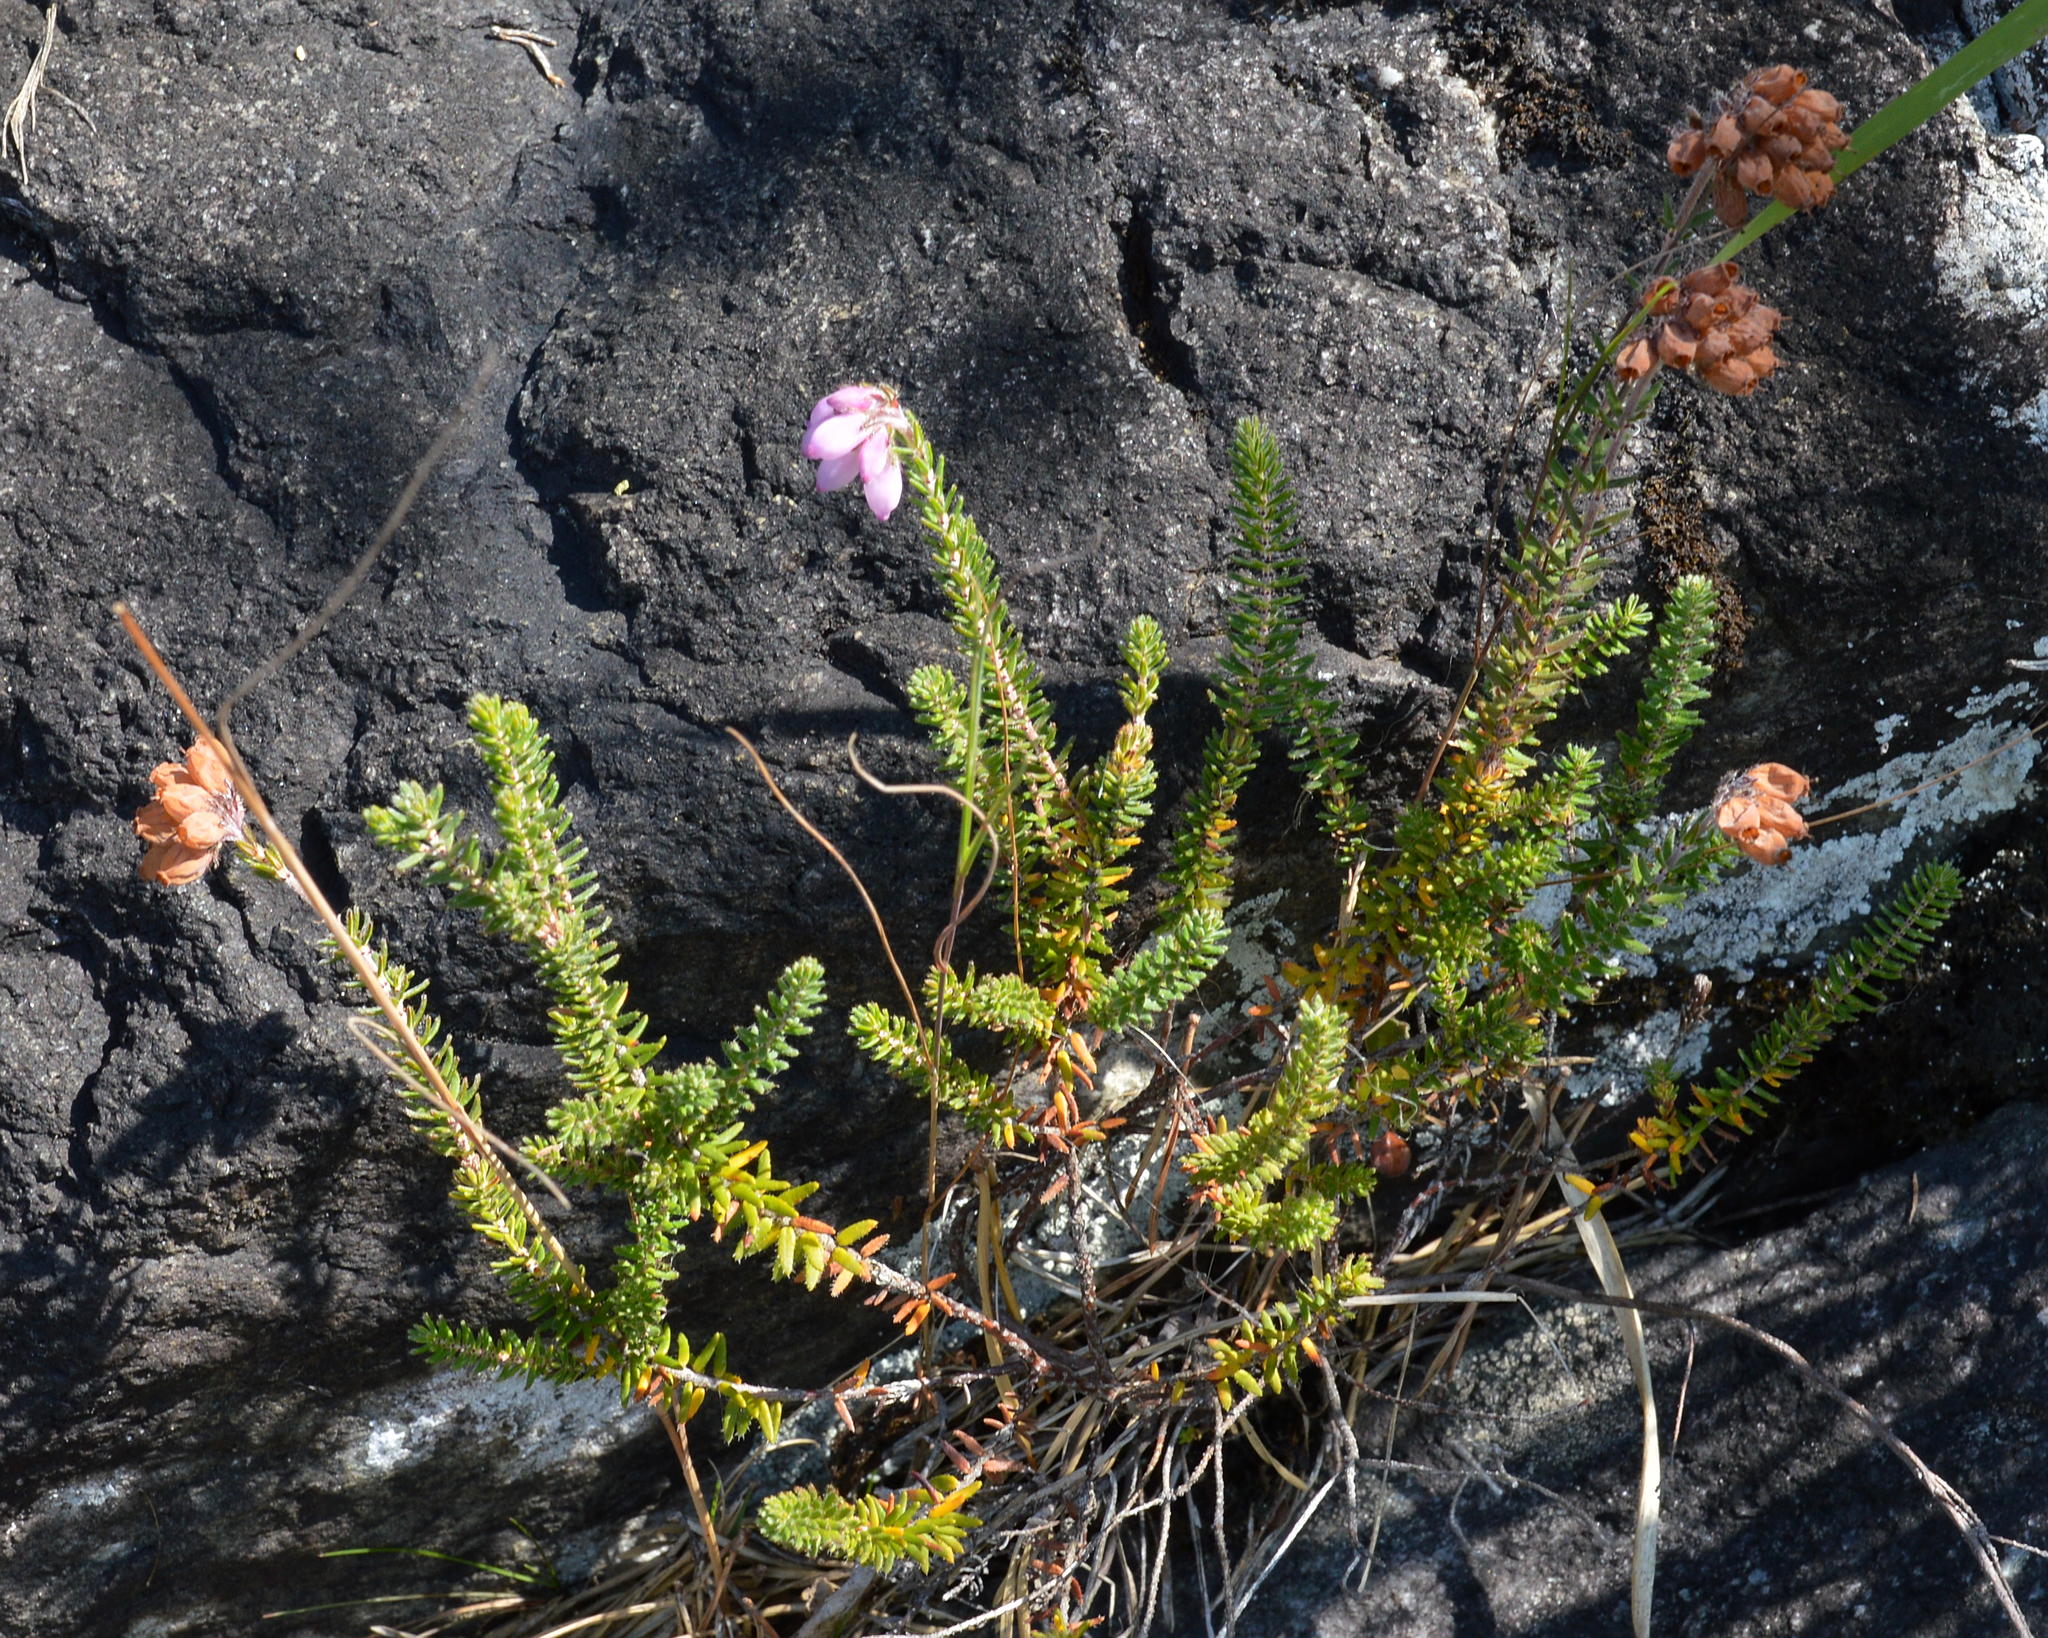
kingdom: Plantae
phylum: Tracheophyta
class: Magnoliopsida
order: Ericales
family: Ericaceae
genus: Erica
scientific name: Erica tetralix
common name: Cross-leaved heath
